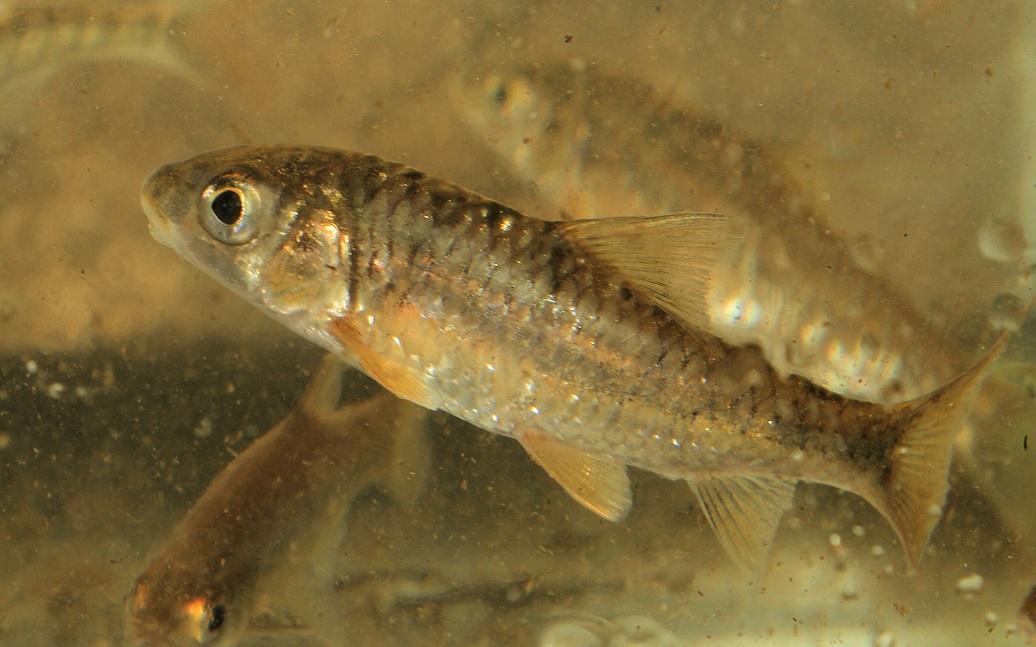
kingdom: Animalia
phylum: Chordata
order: Cypriniformes
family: Cyprinidae
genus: Labeobarbus
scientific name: Labeobarbus marequensis
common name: Largescale yellowfish
